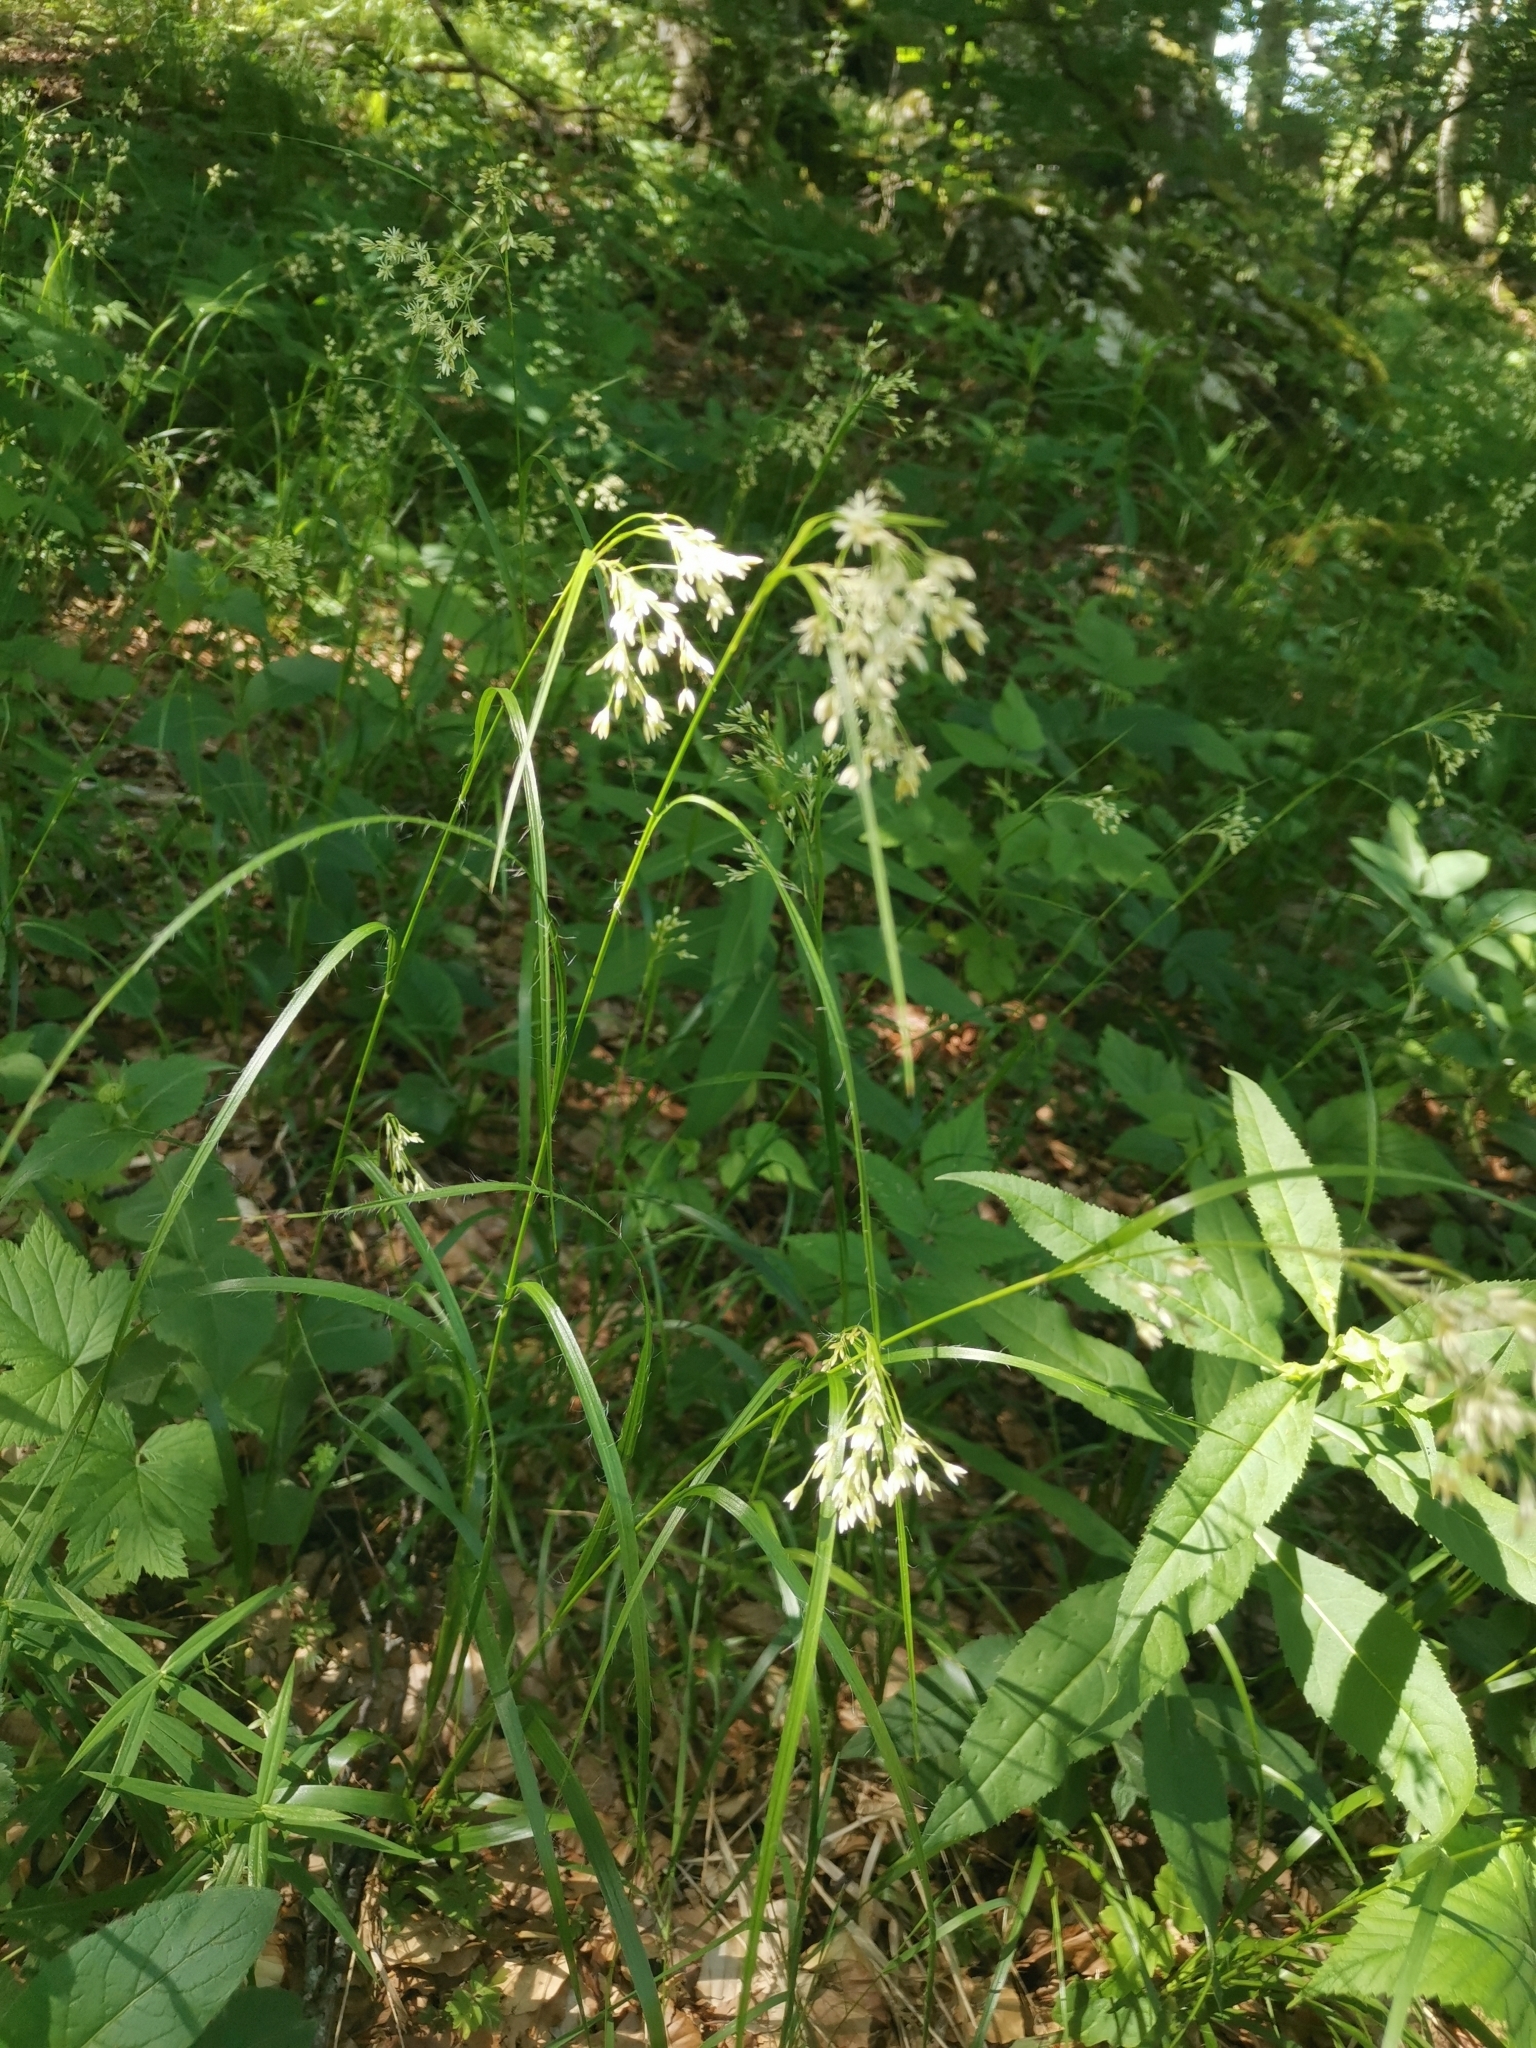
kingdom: Plantae
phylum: Tracheophyta
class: Liliopsida
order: Poales
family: Juncaceae
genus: Luzula
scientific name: Luzula nivea
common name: Snow-white wood-rush
